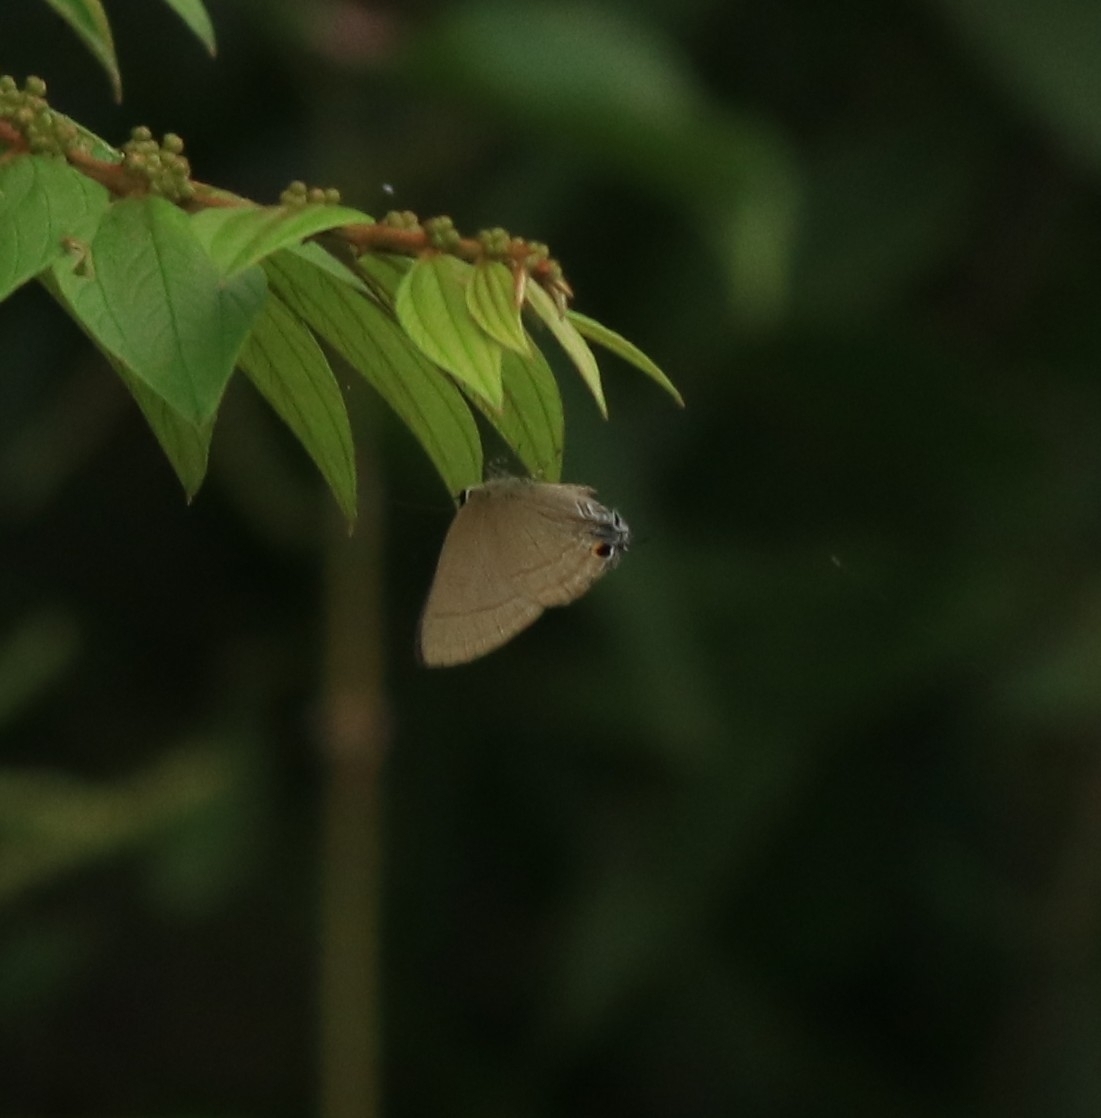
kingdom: Animalia
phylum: Arthropoda
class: Insecta
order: Lepidoptera
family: Lycaenidae
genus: Rapala
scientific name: Rapala manea
